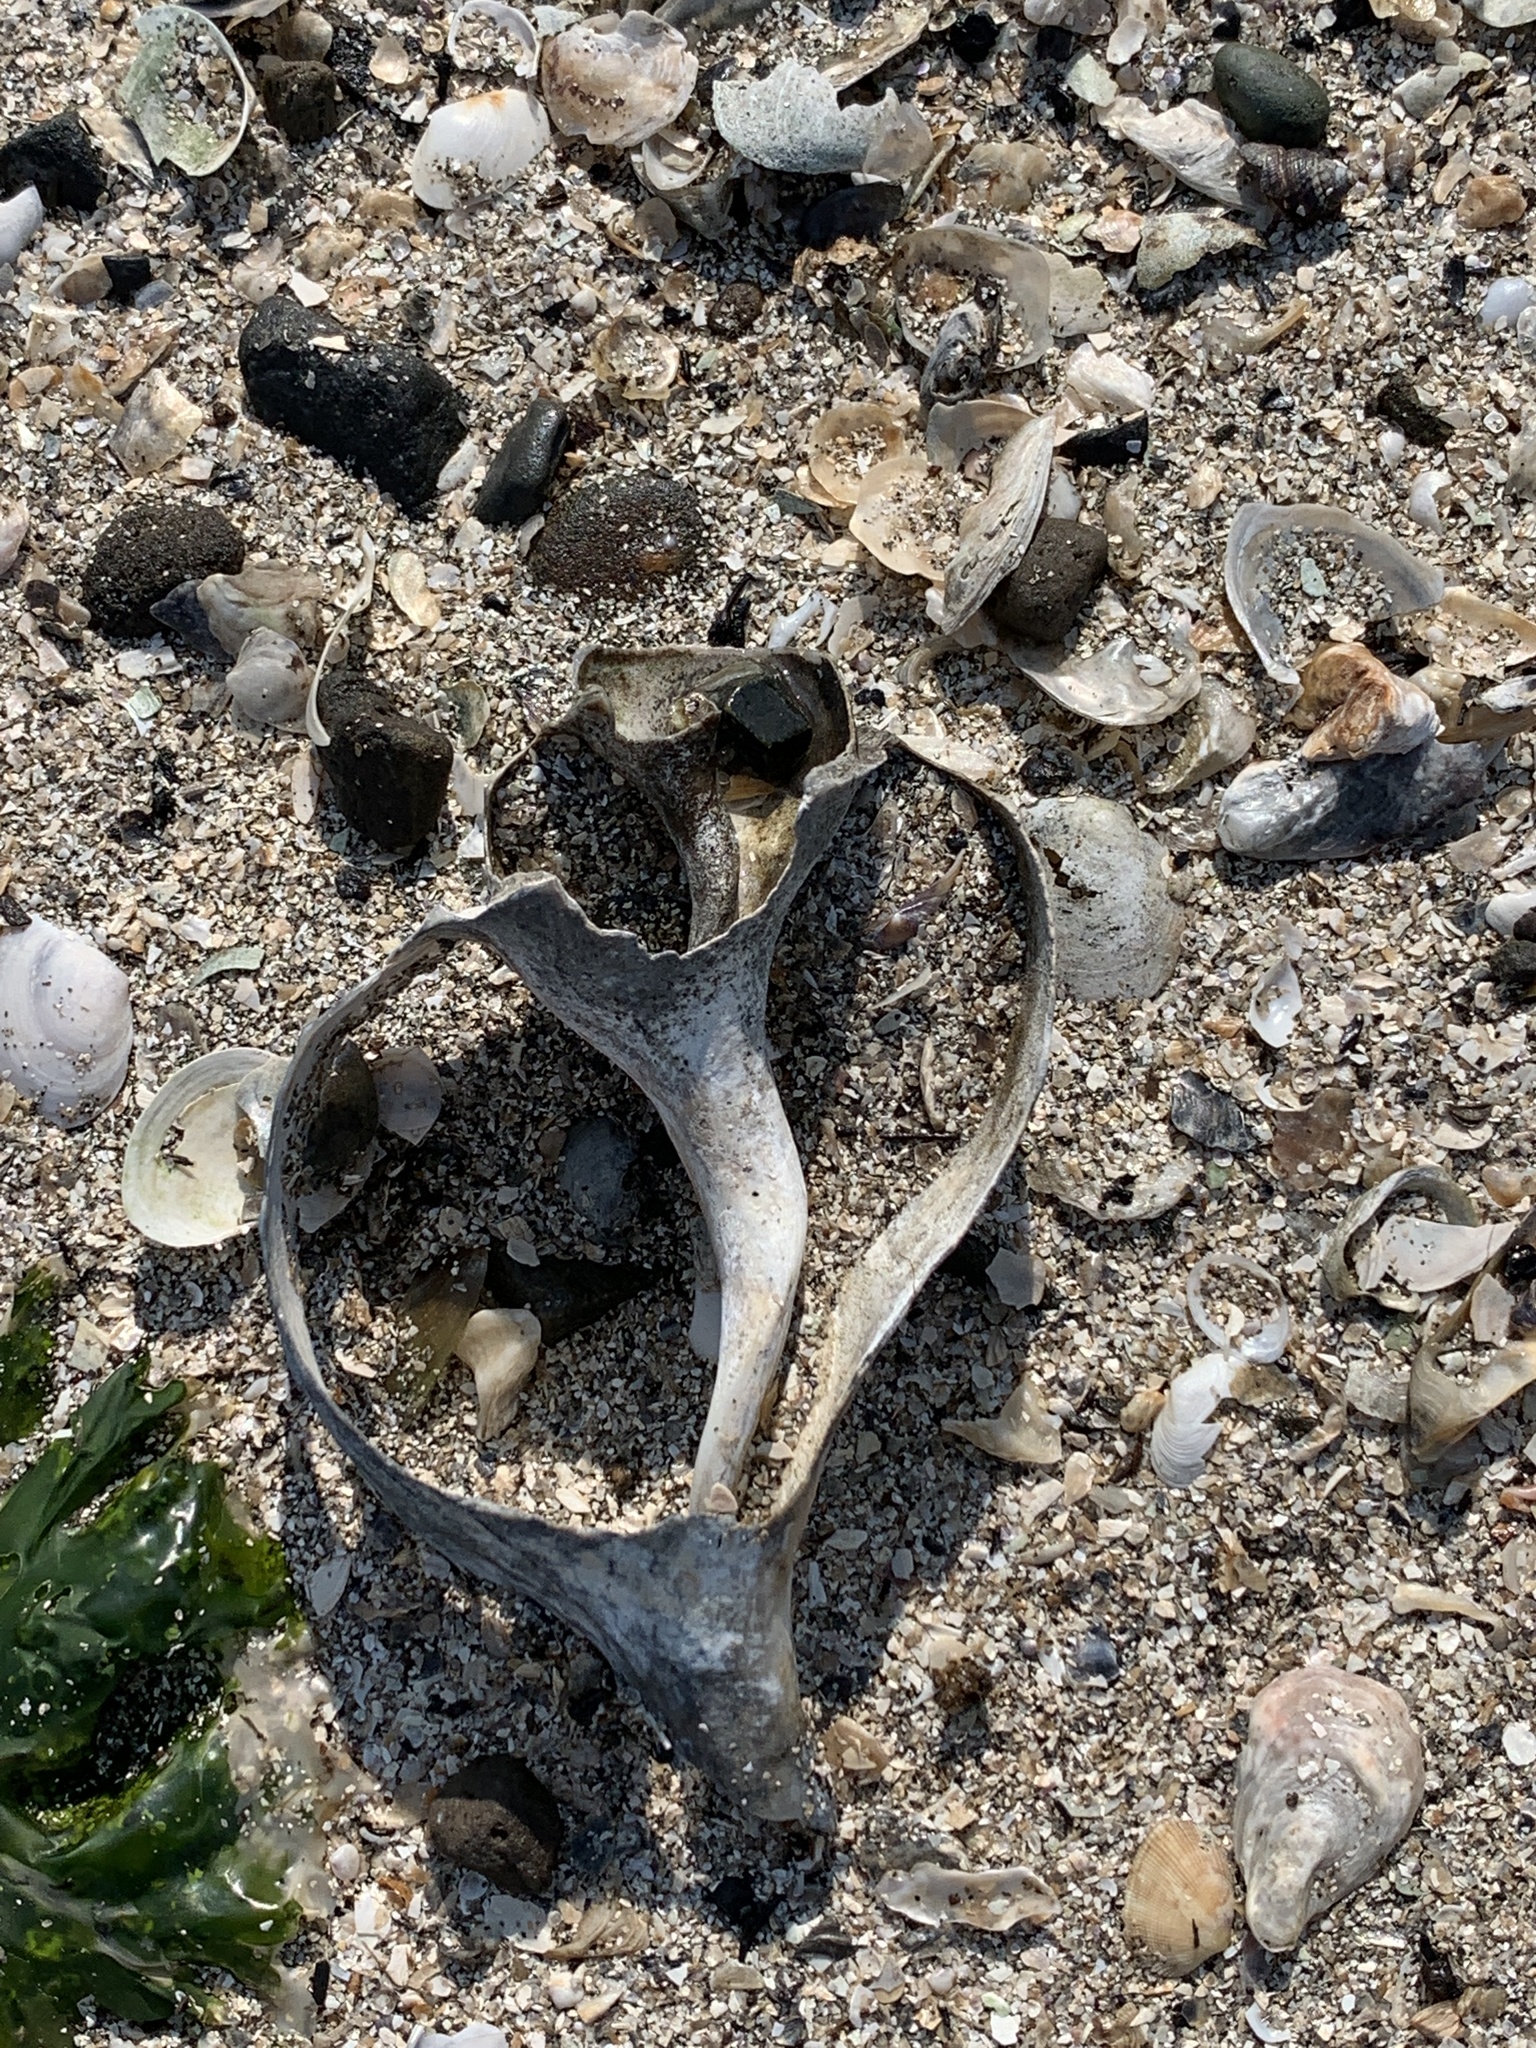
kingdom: Animalia
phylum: Mollusca
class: Gastropoda
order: Neogastropoda
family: Busyconidae
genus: Busycotypus
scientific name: Busycotypus canaliculatus
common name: Channeled whelk
